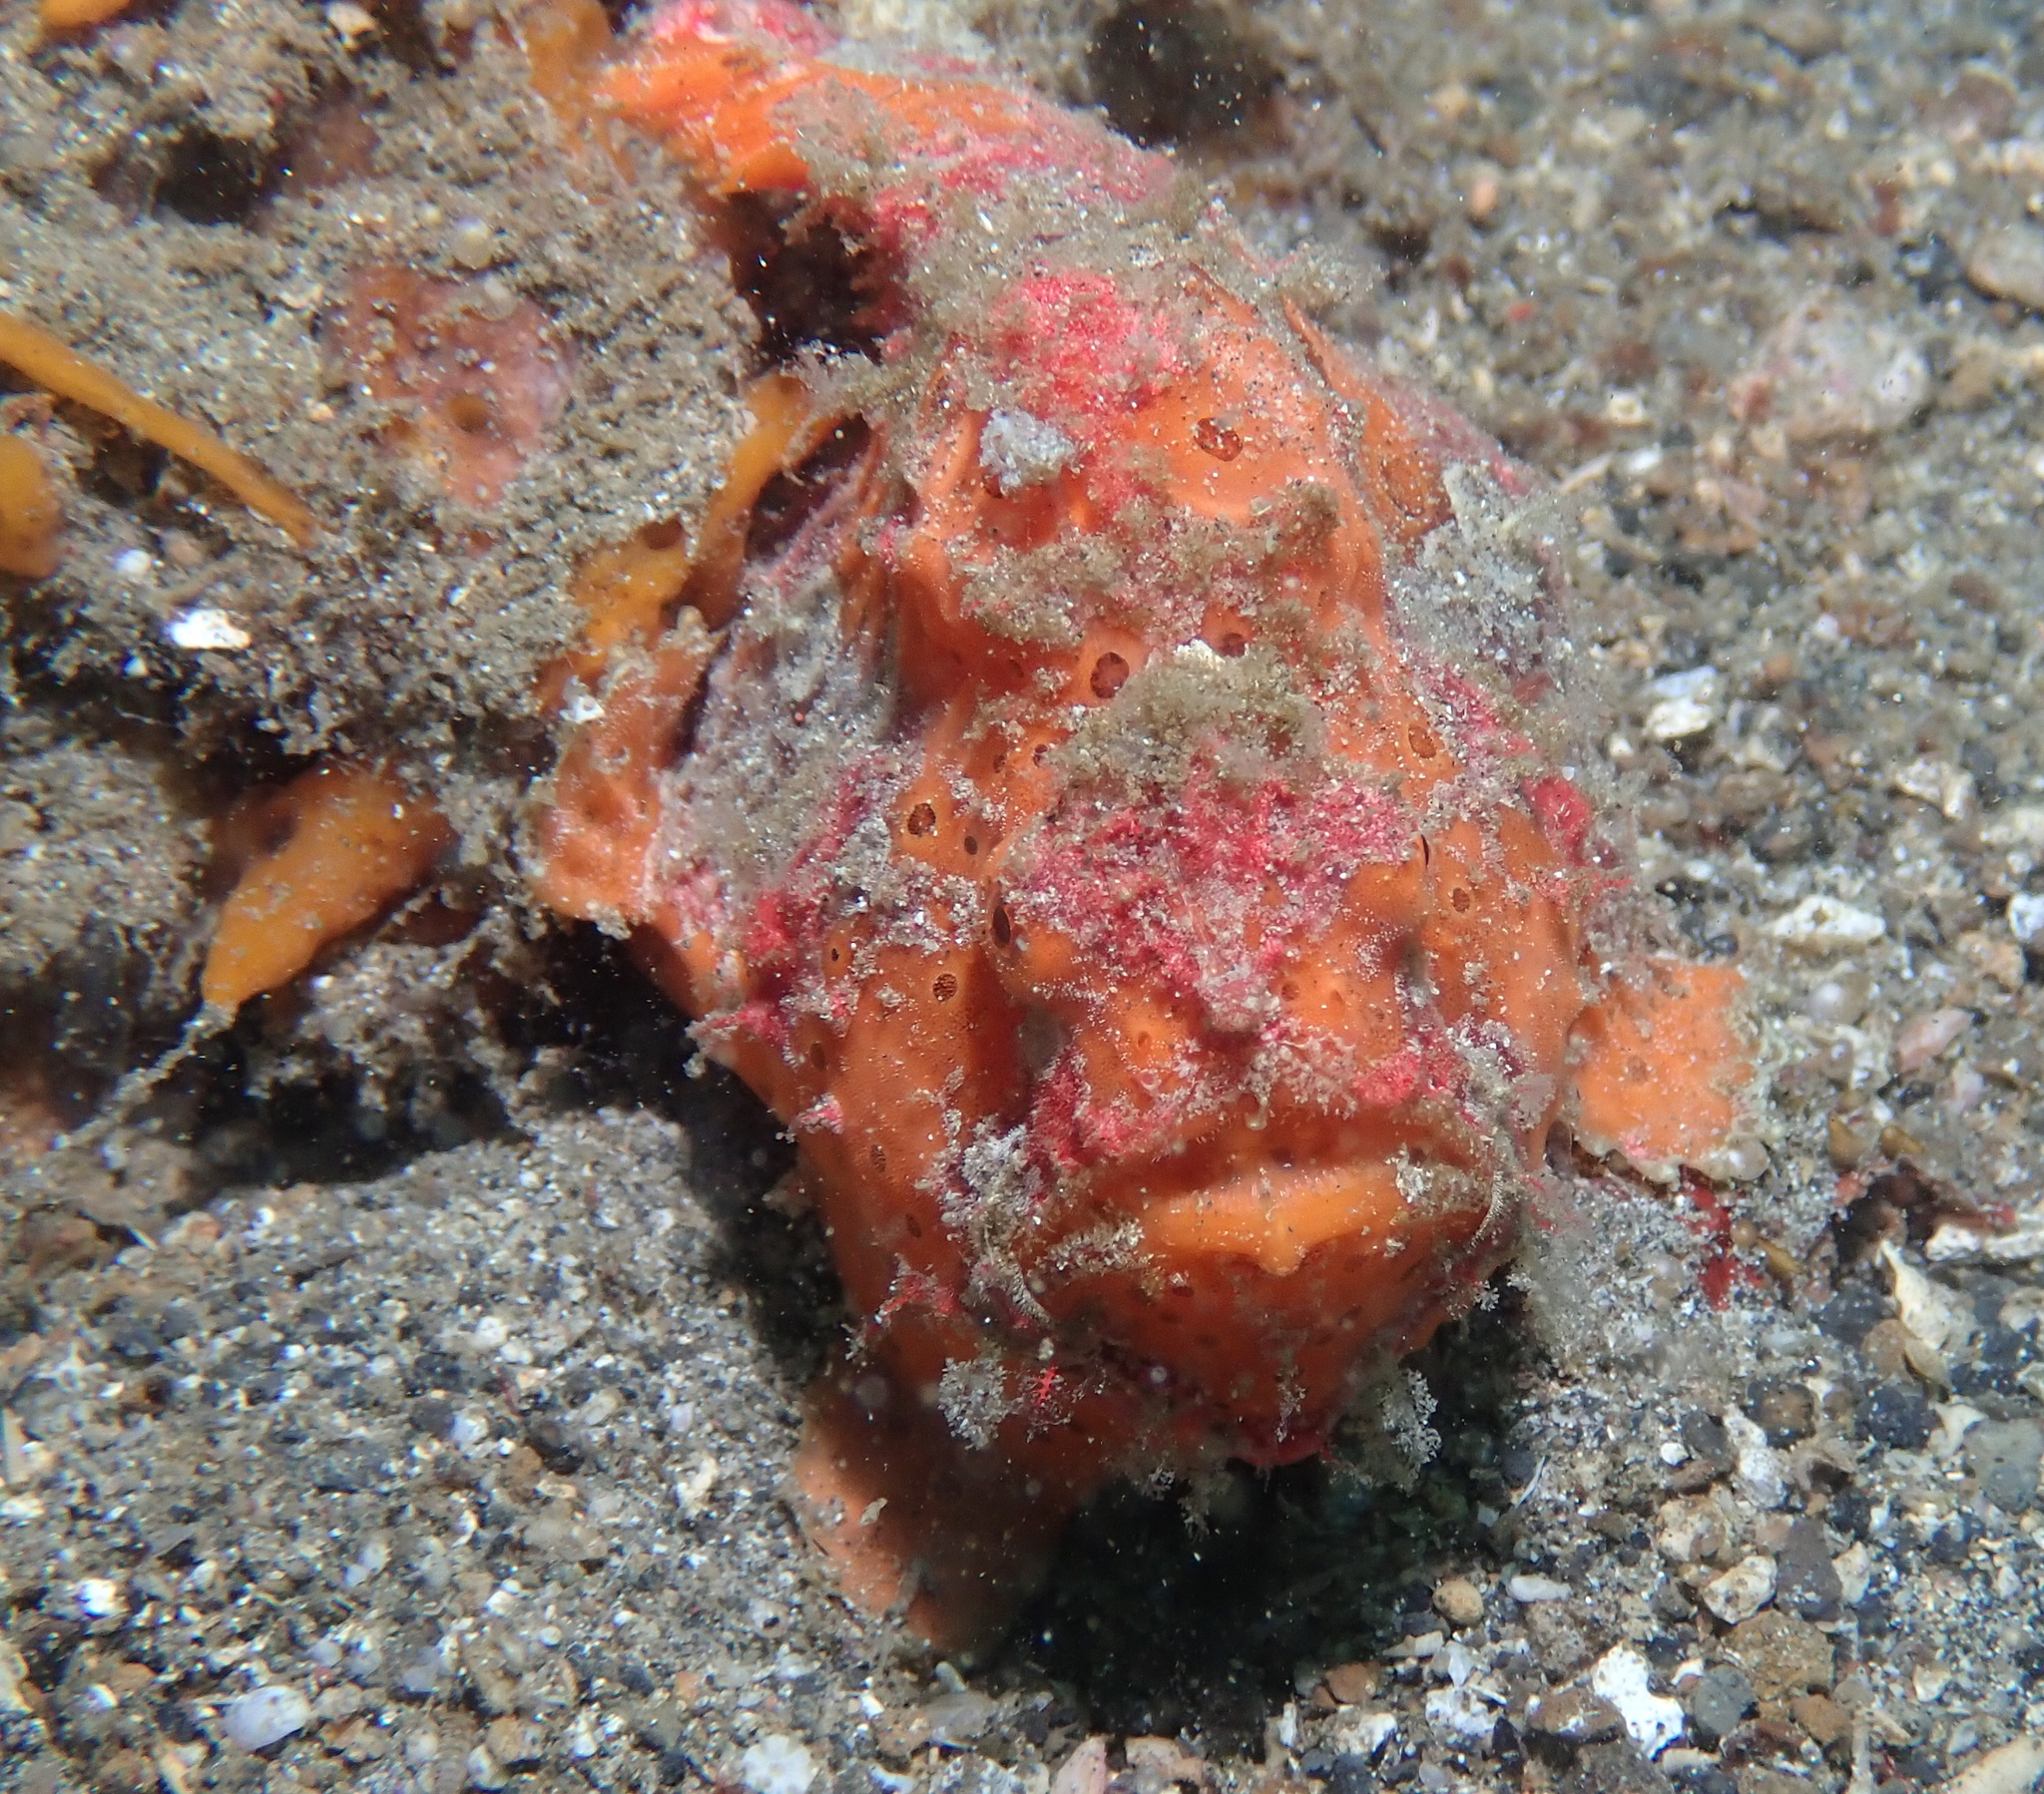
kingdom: Animalia
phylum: Chordata
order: Lophiiformes
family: Antennariidae
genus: Antennarius
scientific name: Antennarius pictus
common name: Painted frogfish
